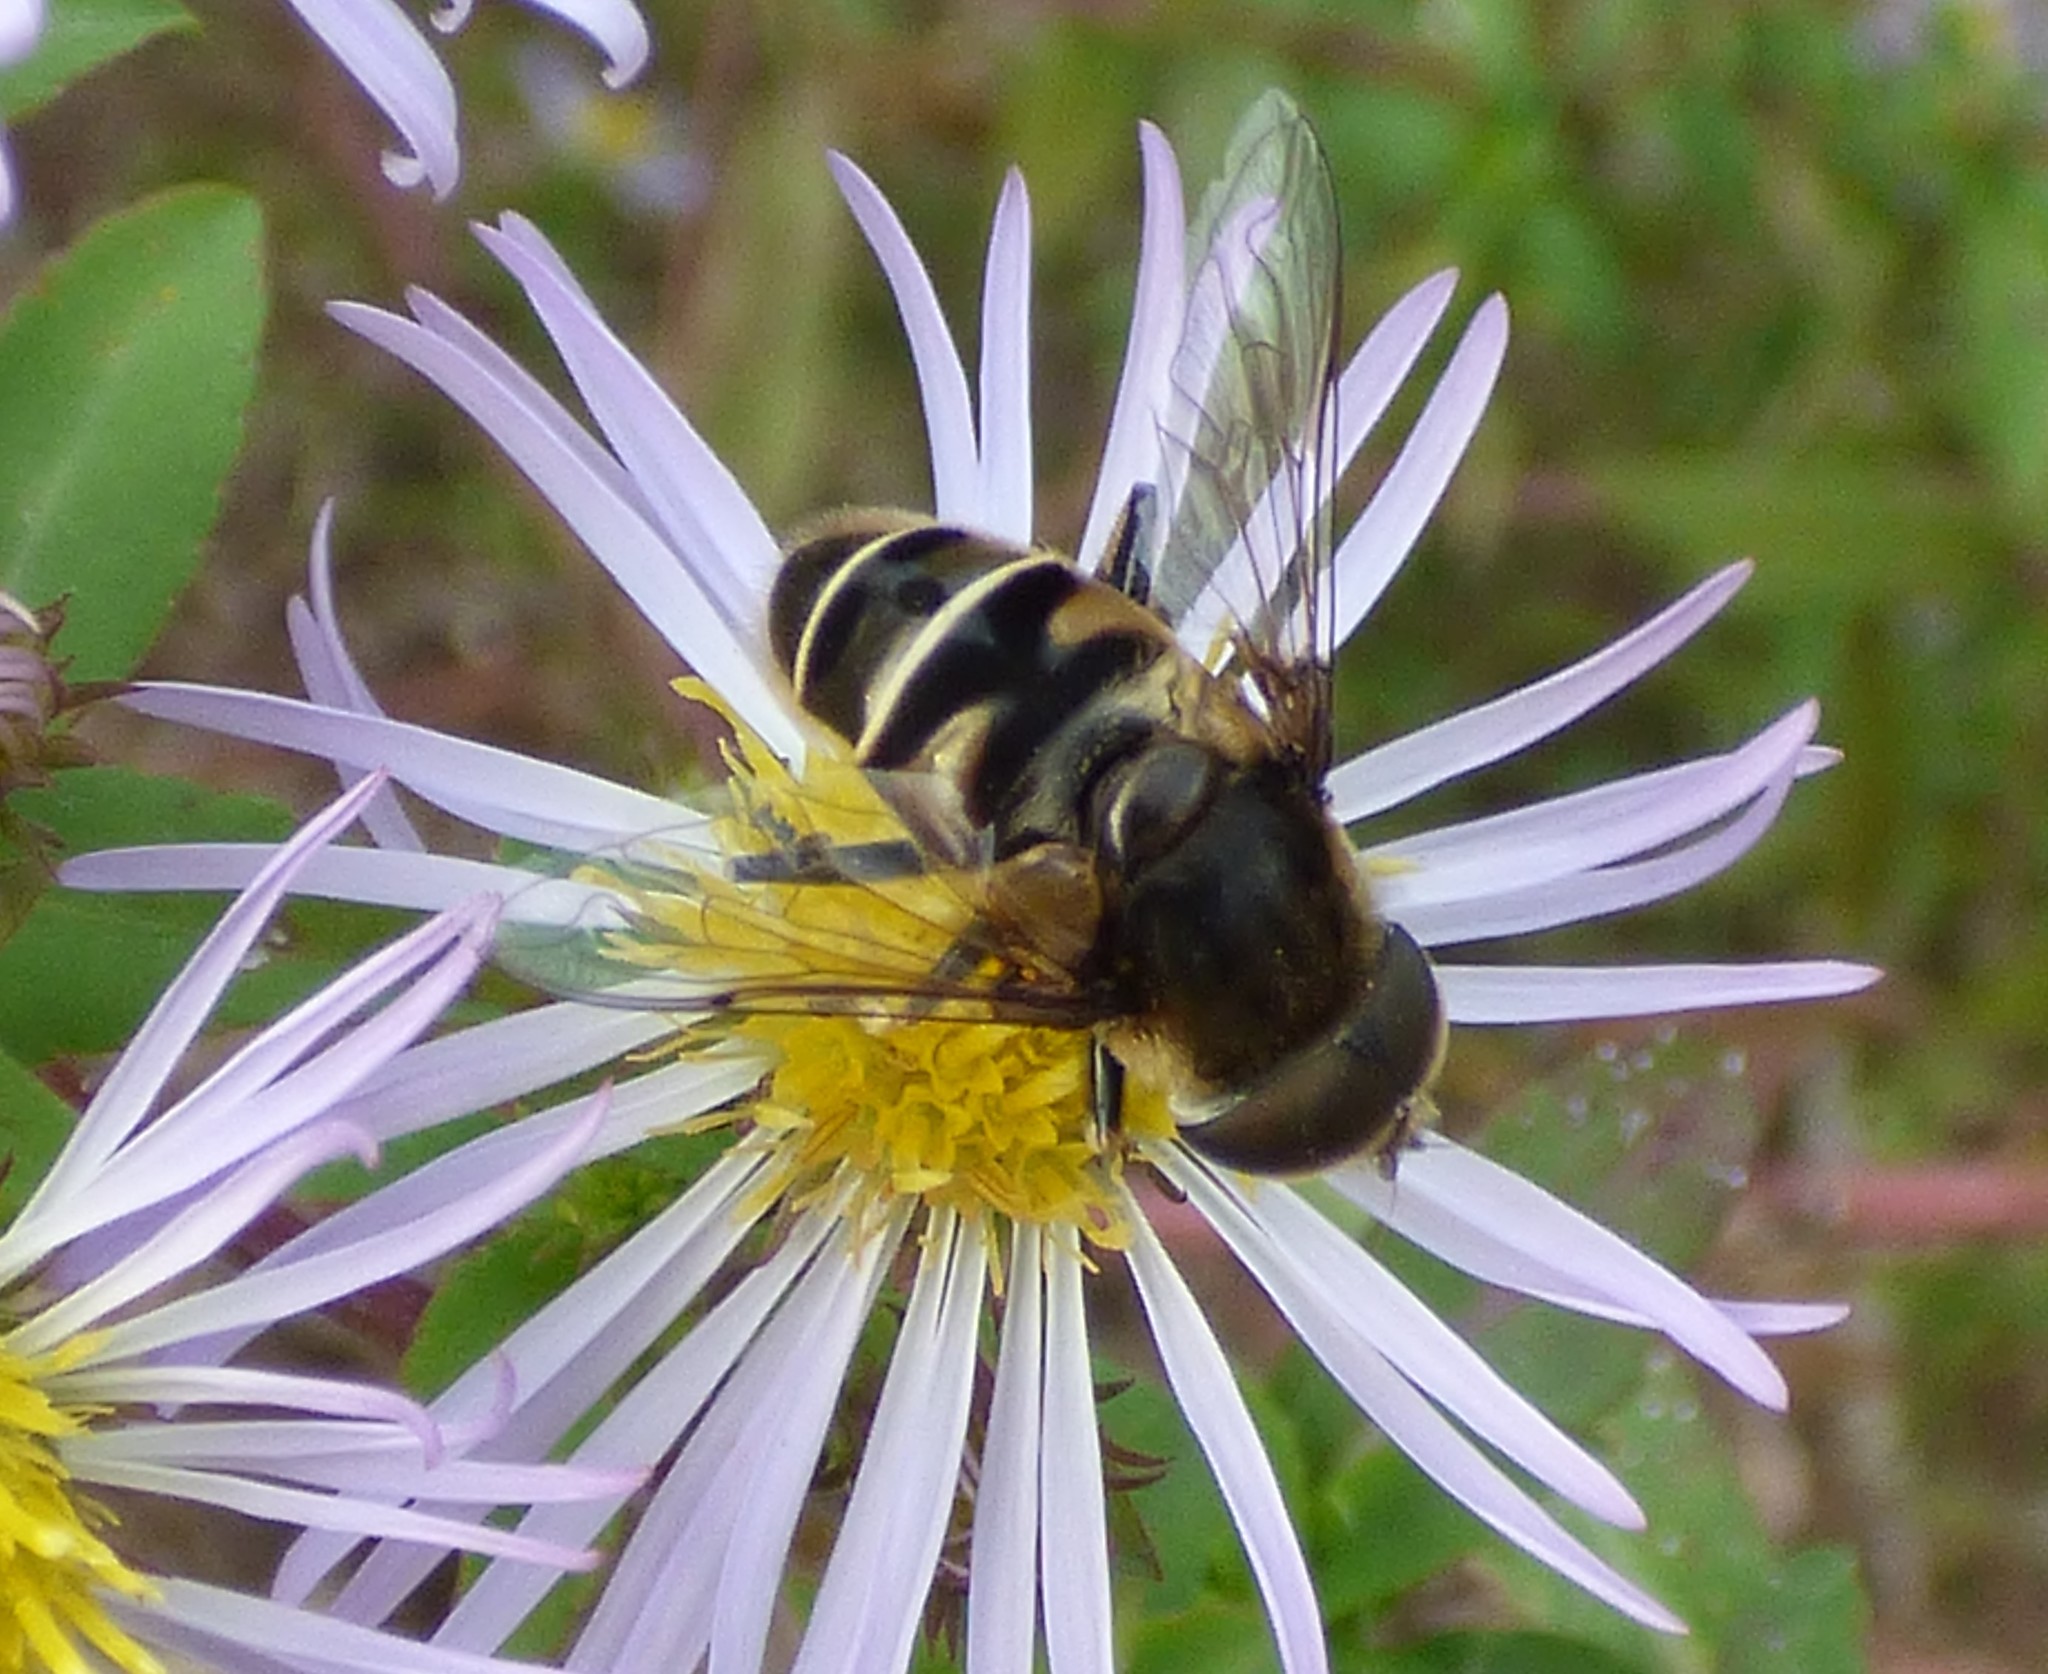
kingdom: Animalia
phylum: Arthropoda
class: Insecta
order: Diptera
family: Syrphidae
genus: Eristalis
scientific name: Eristalis dimidiata
